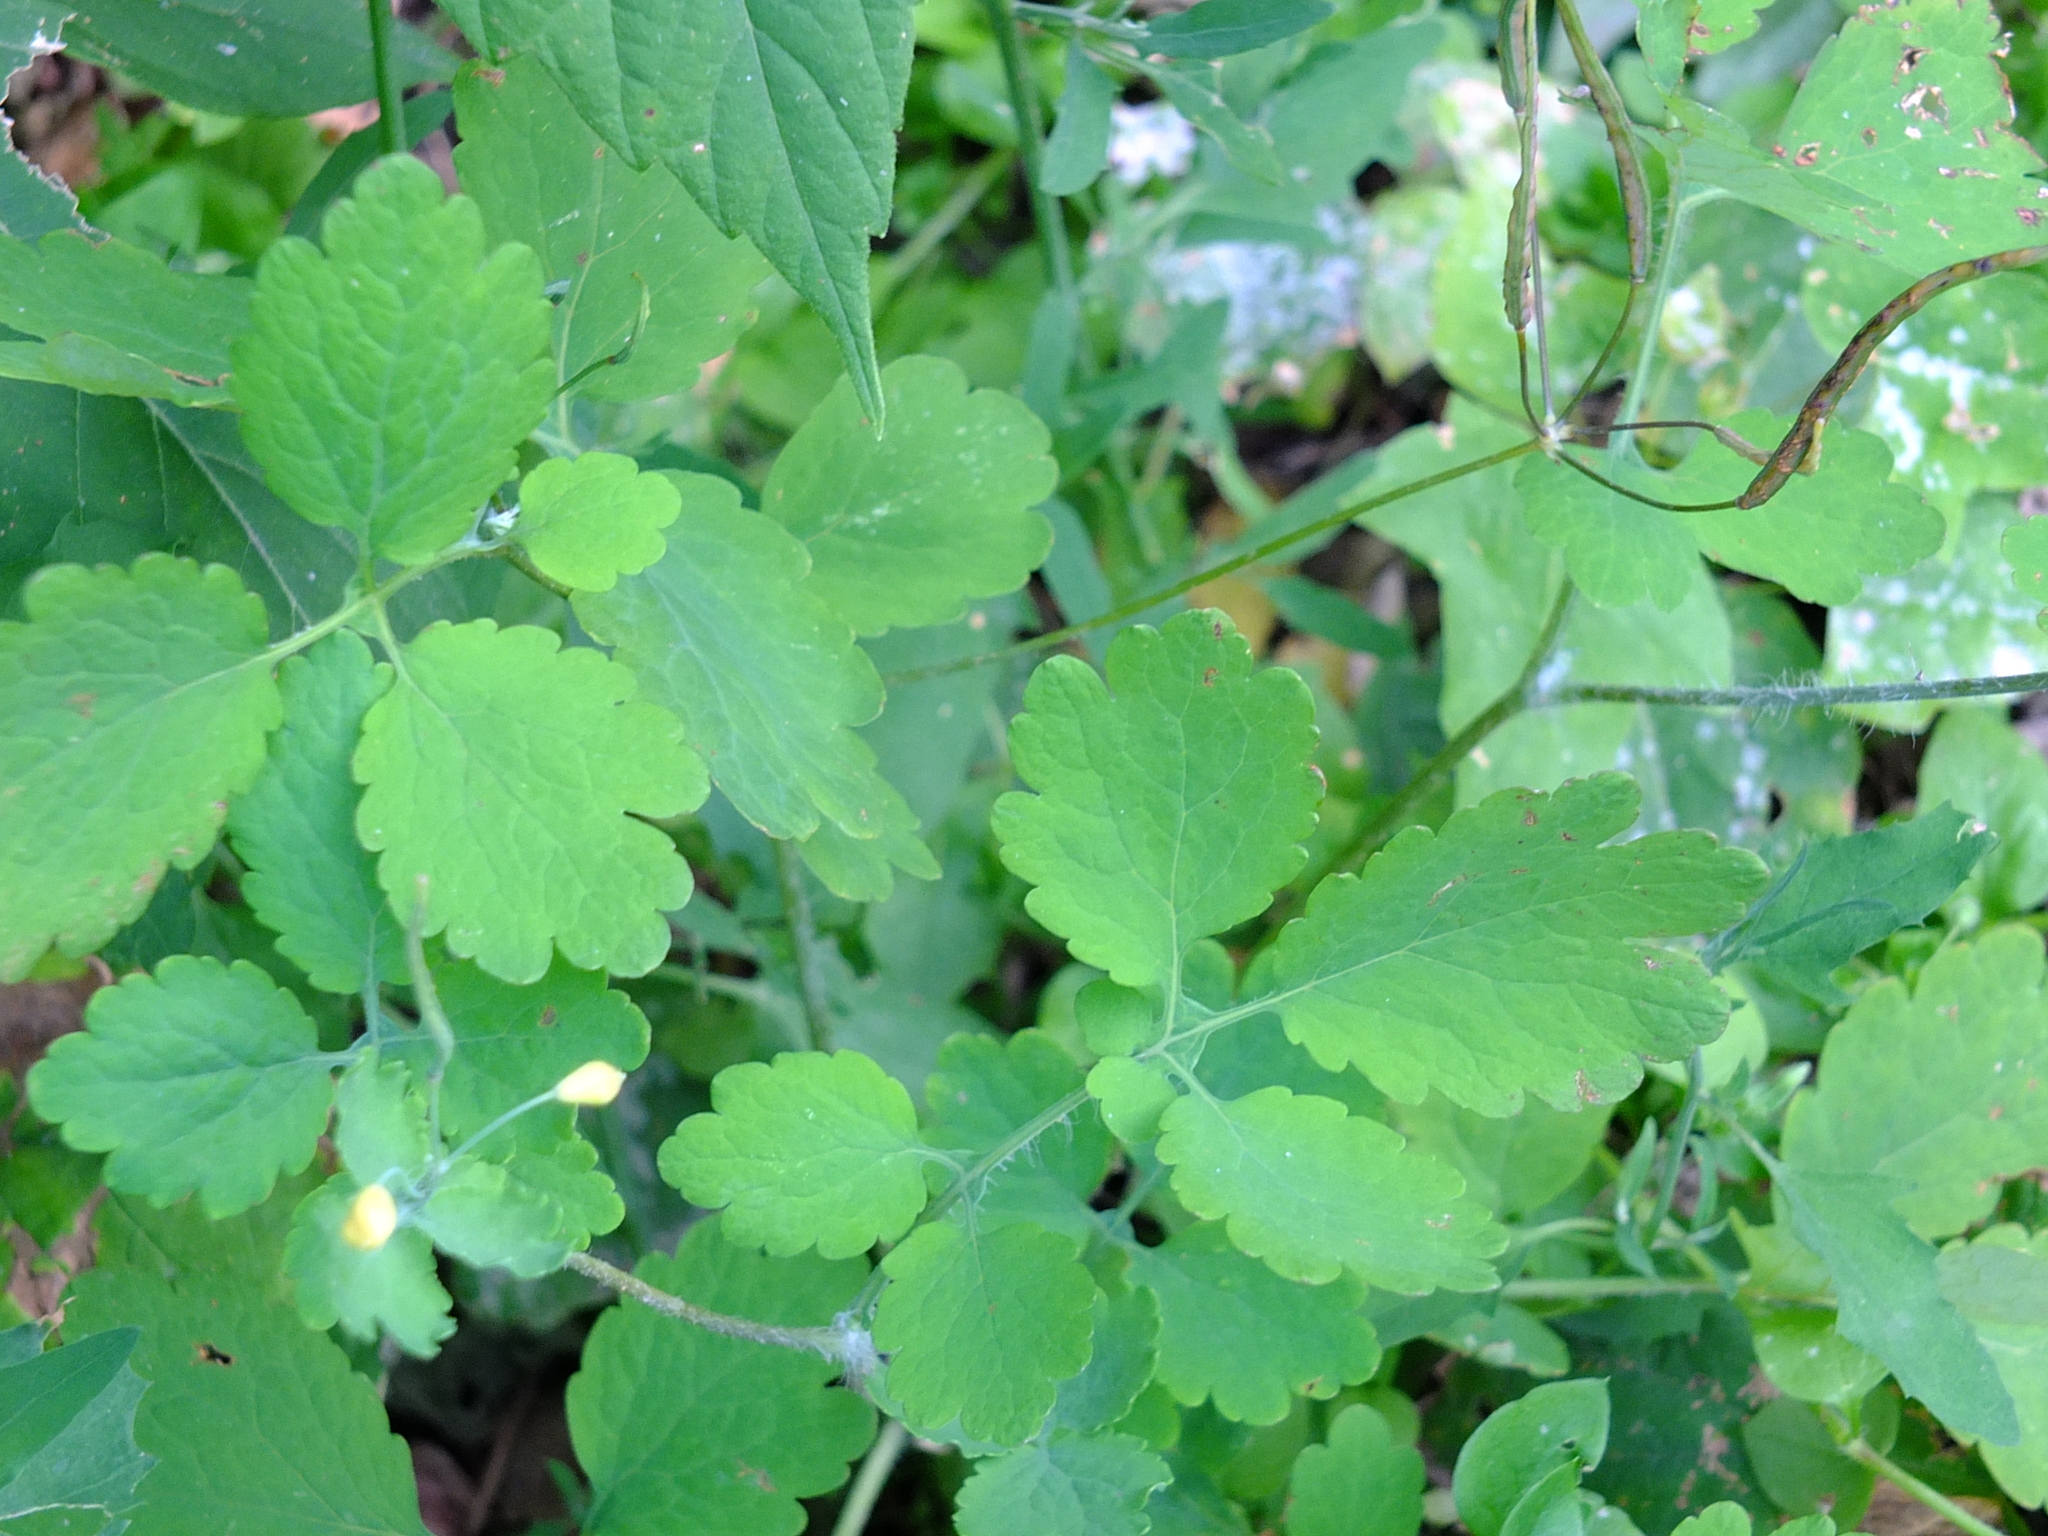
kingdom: Plantae
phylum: Tracheophyta
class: Magnoliopsida
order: Ranunculales
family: Papaveraceae
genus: Chelidonium
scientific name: Chelidonium majus
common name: Greater celandine
